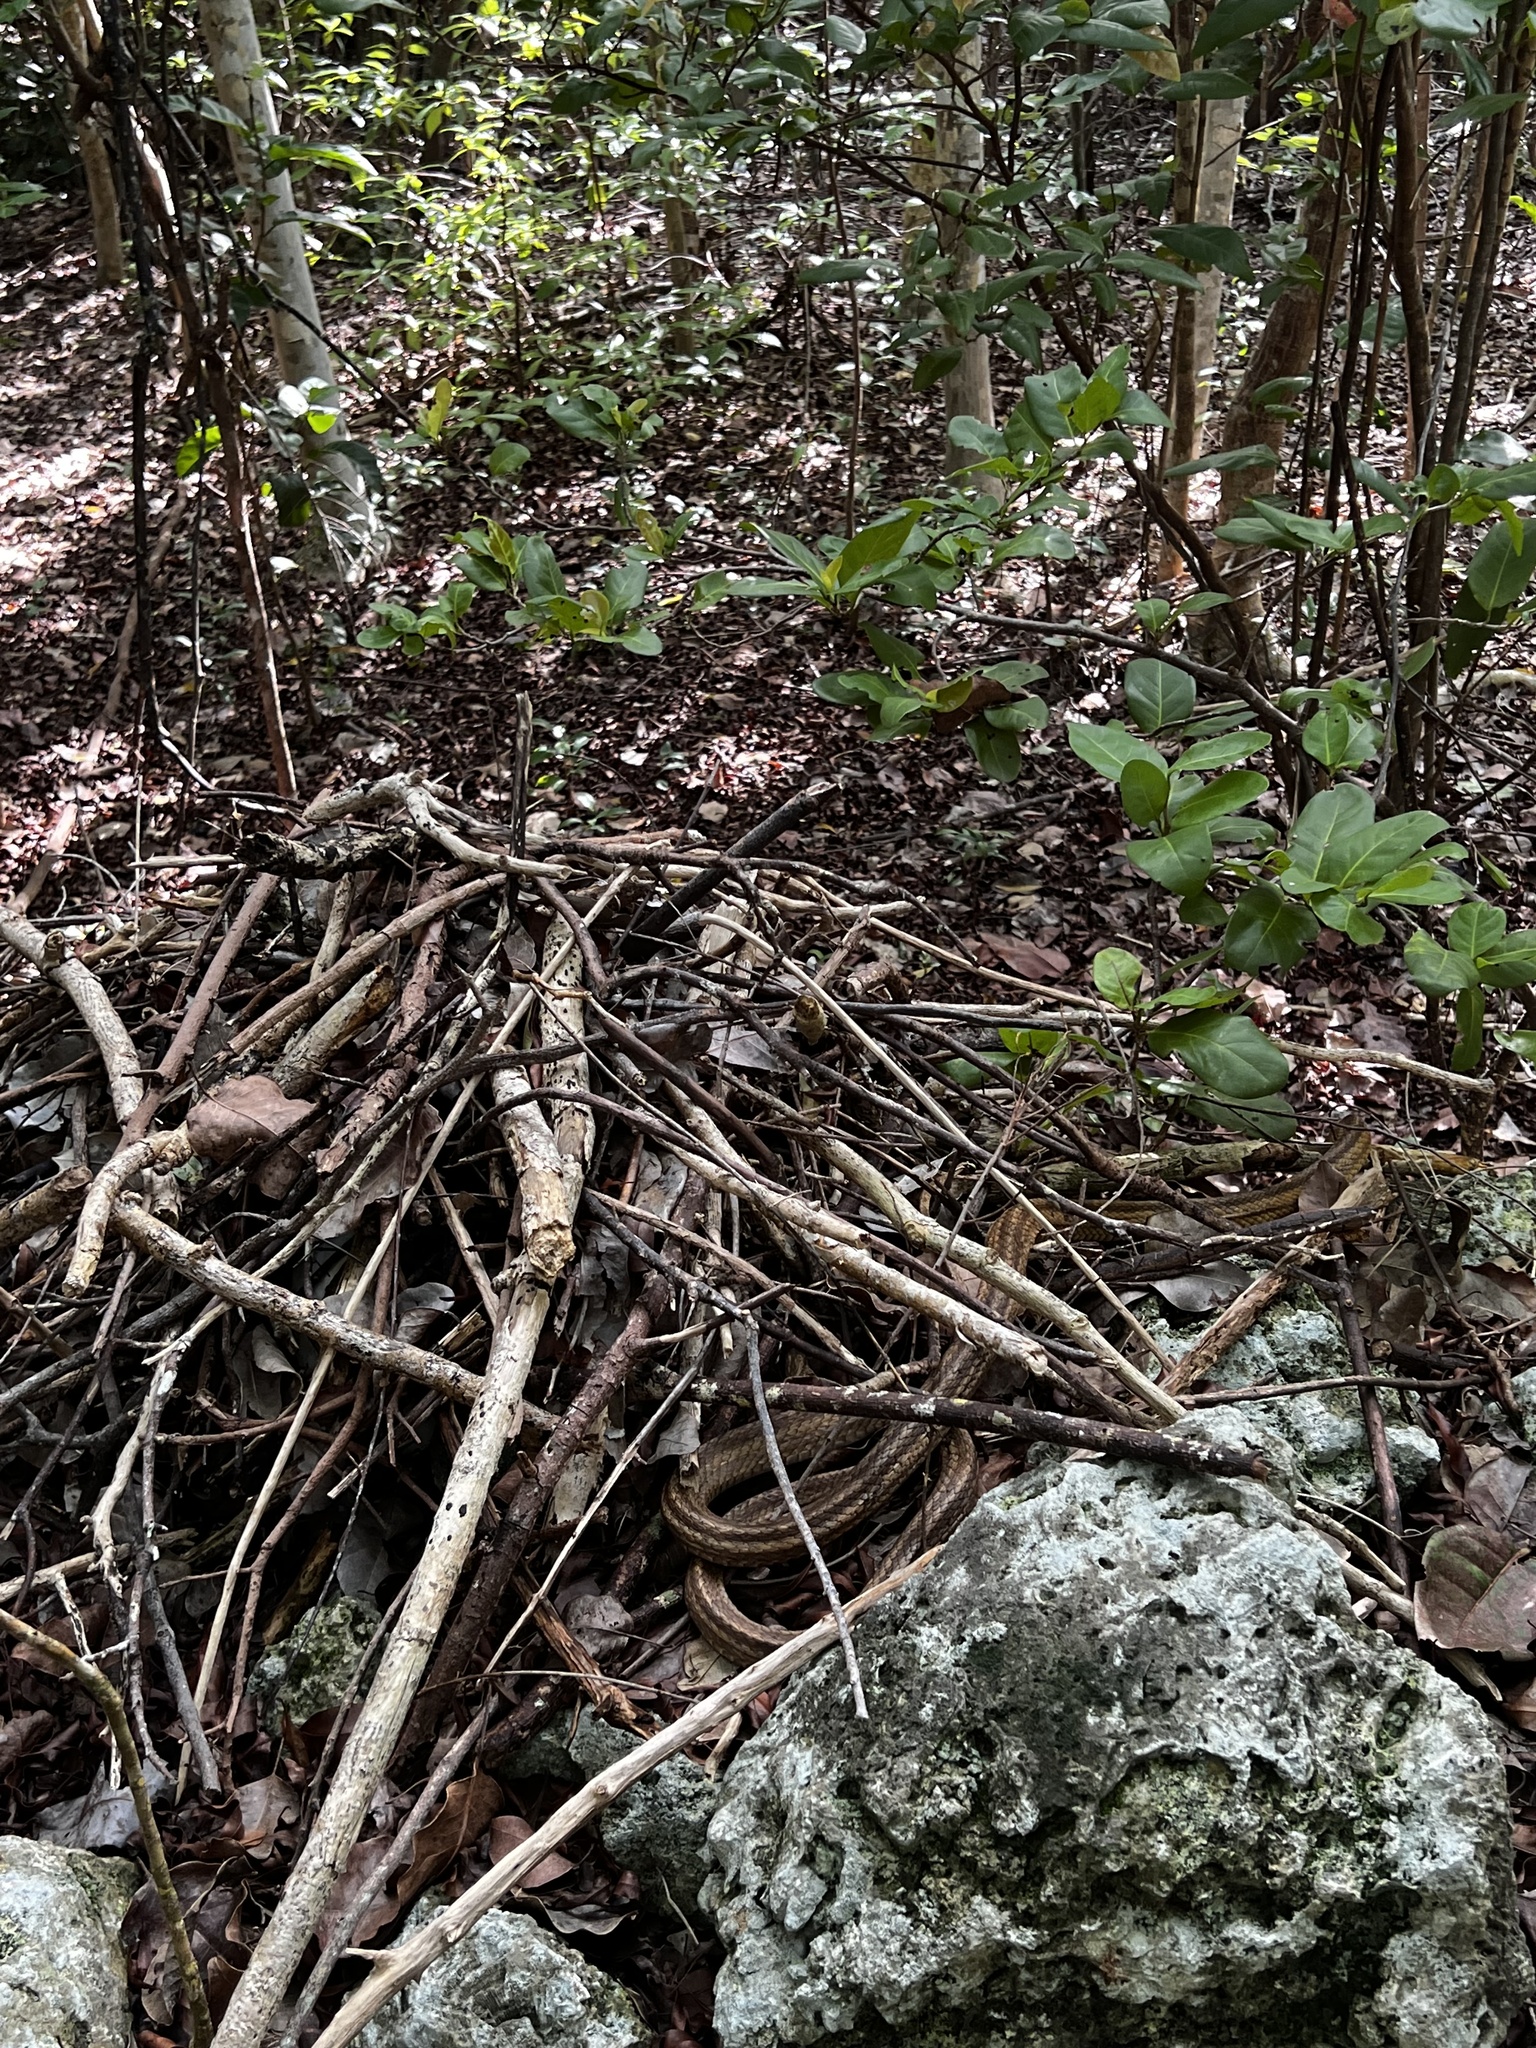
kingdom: Animalia
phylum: Chordata
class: Squamata
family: Colubridae
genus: Pantherophis
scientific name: Pantherophis alleghaniensis
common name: Eastern rat snake
